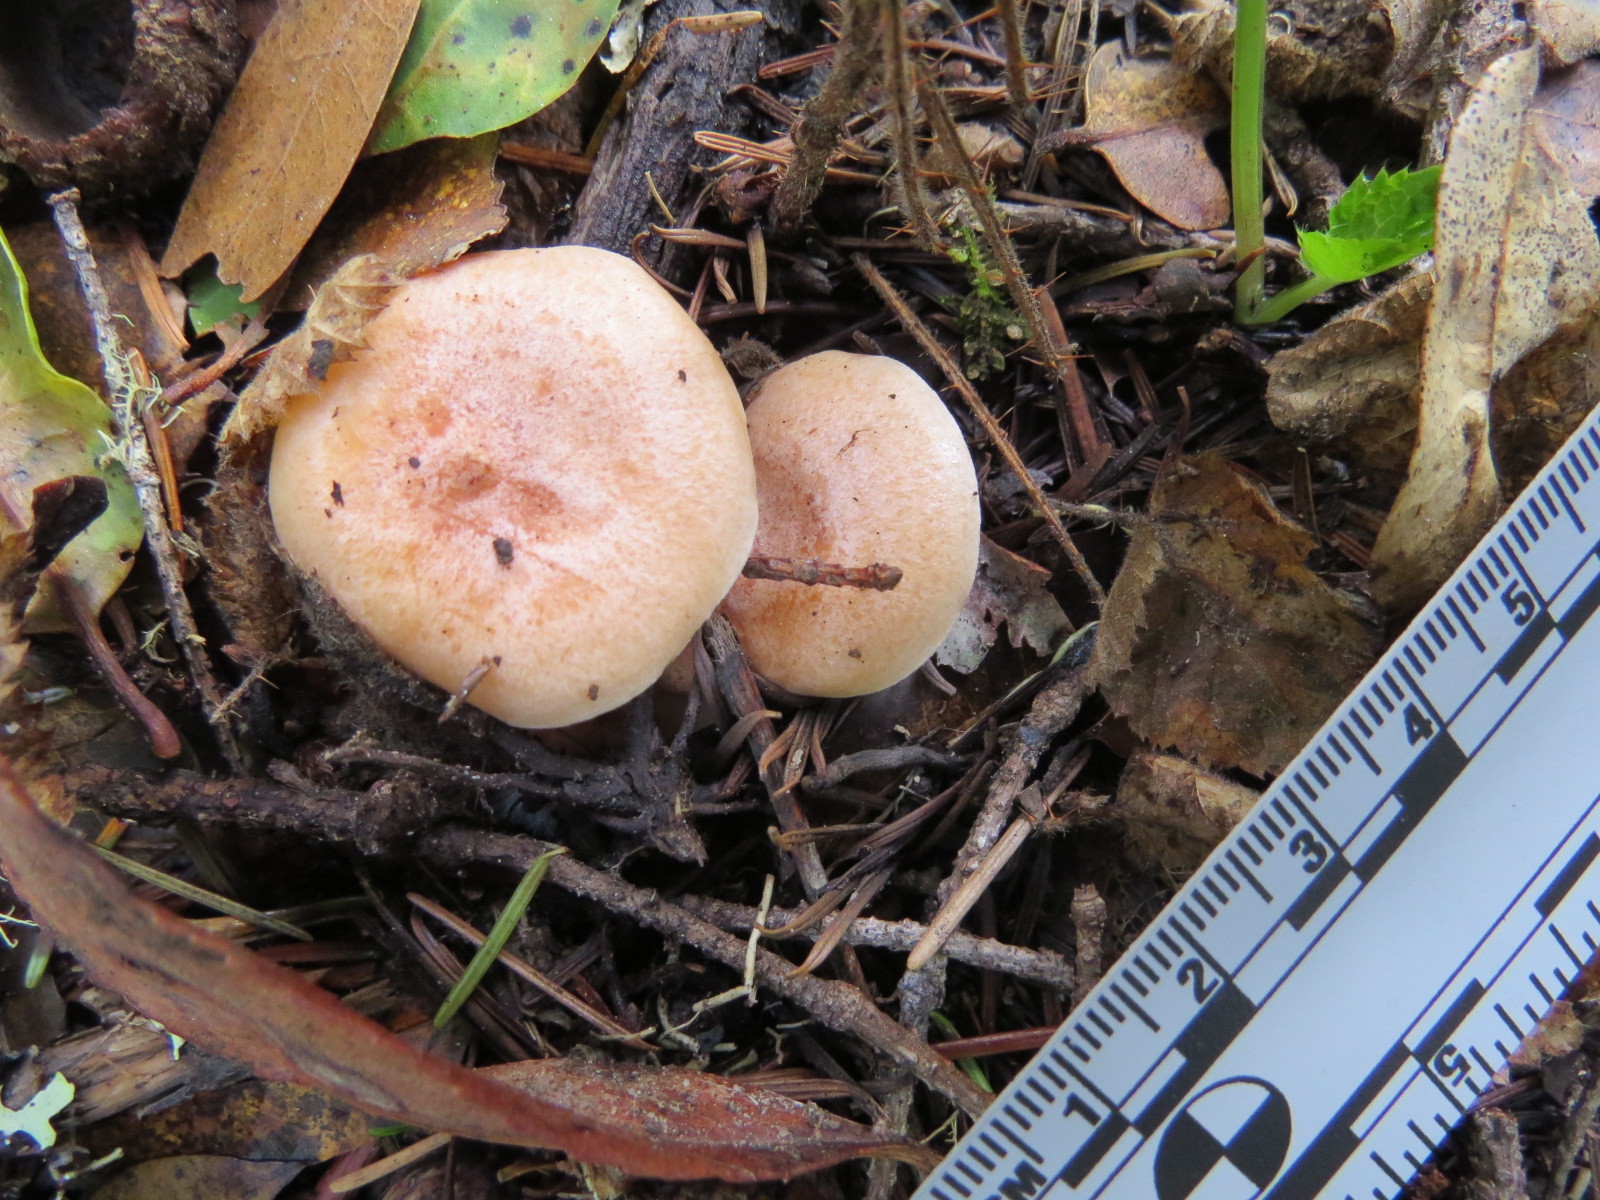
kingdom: Fungi
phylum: Basidiomycota
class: Agaricomycetes
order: Russulales
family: Russulaceae
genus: Lactarius
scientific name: Lactarius xanthogalactus
